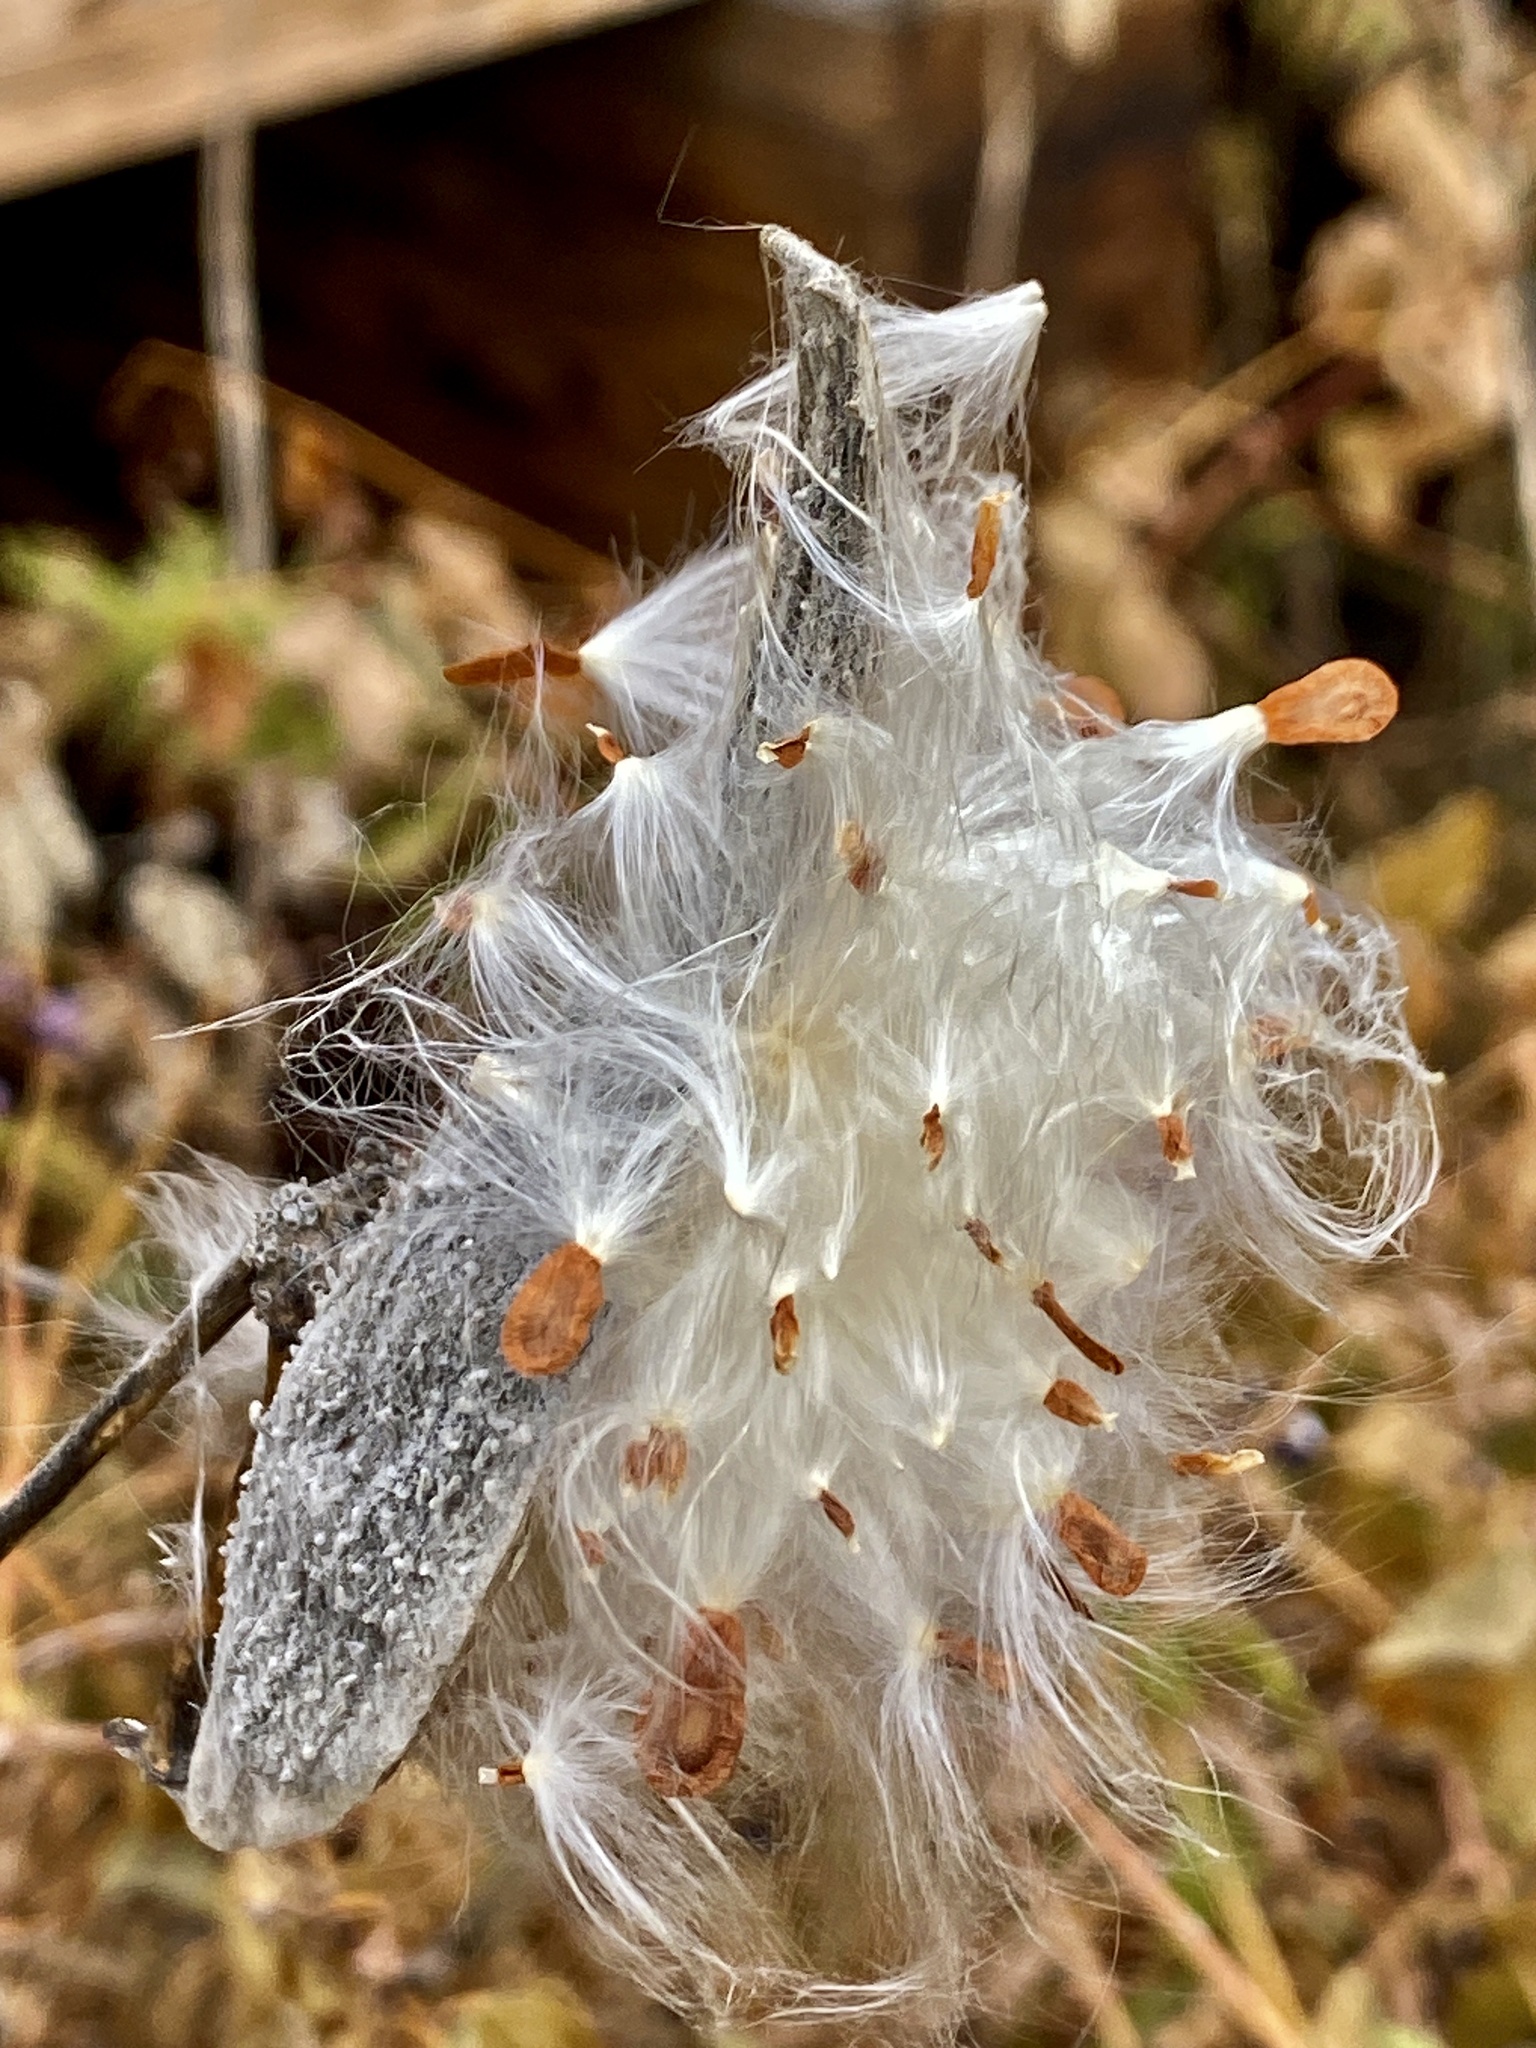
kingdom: Plantae
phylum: Tracheophyta
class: Magnoliopsida
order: Gentianales
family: Apocynaceae
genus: Asclepias
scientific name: Asclepias syriaca
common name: Common milkweed
